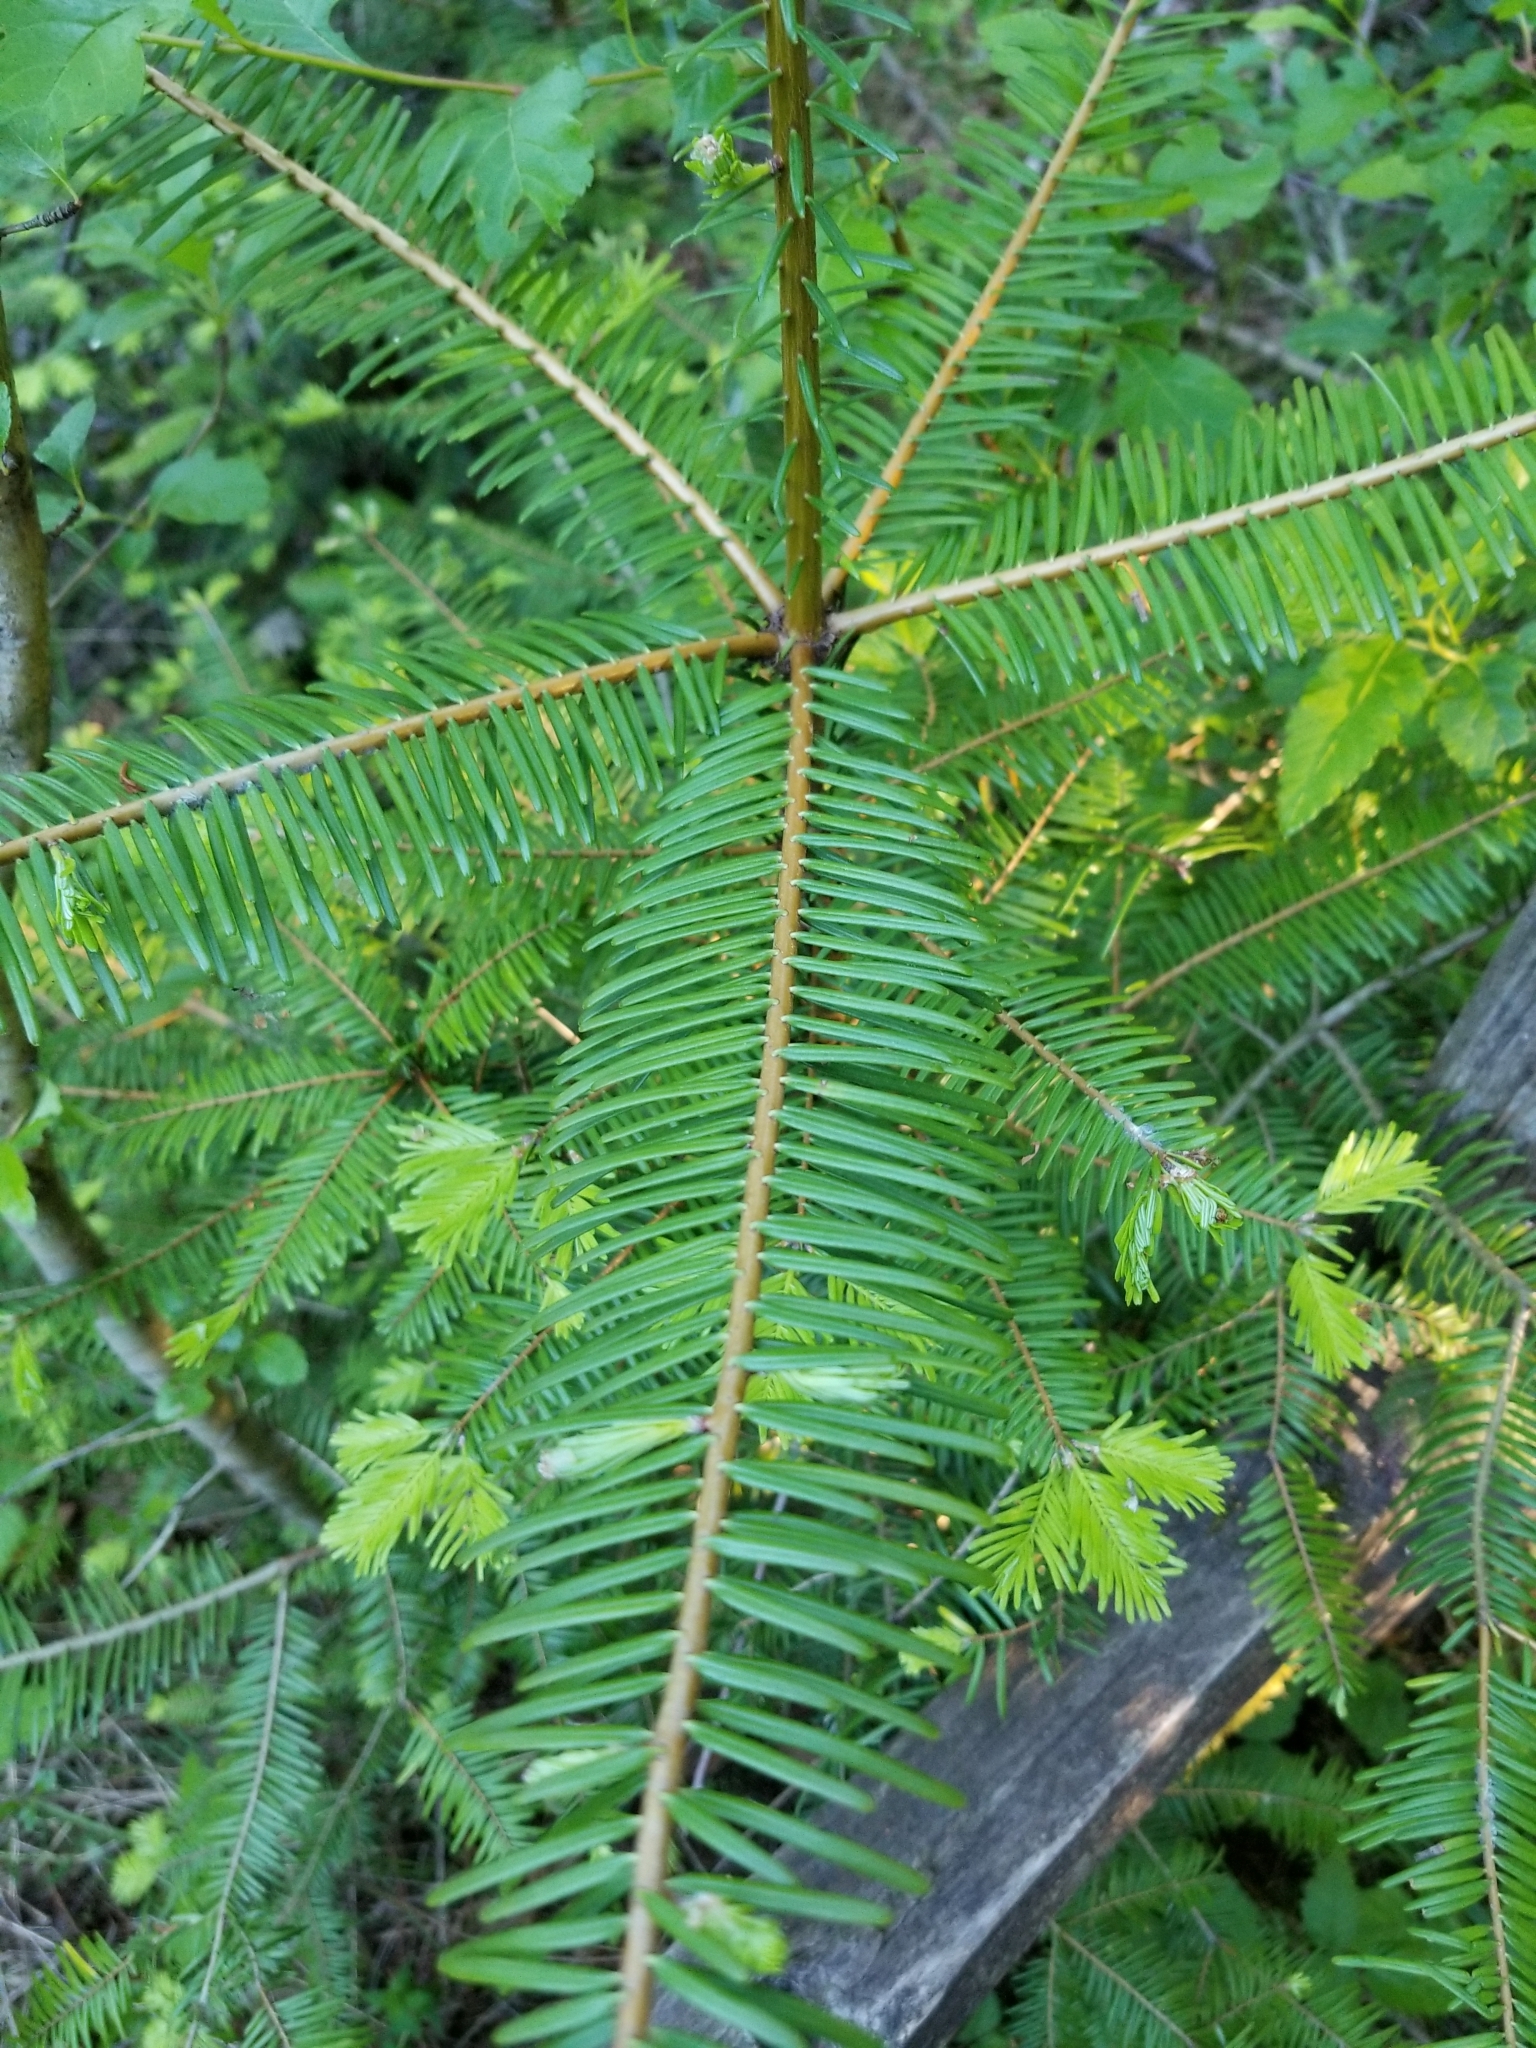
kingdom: Plantae
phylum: Tracheophyta
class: Pinopsida
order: Pinales
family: Pinaceae
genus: Abies
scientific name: Abies grandis
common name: Giant fir
